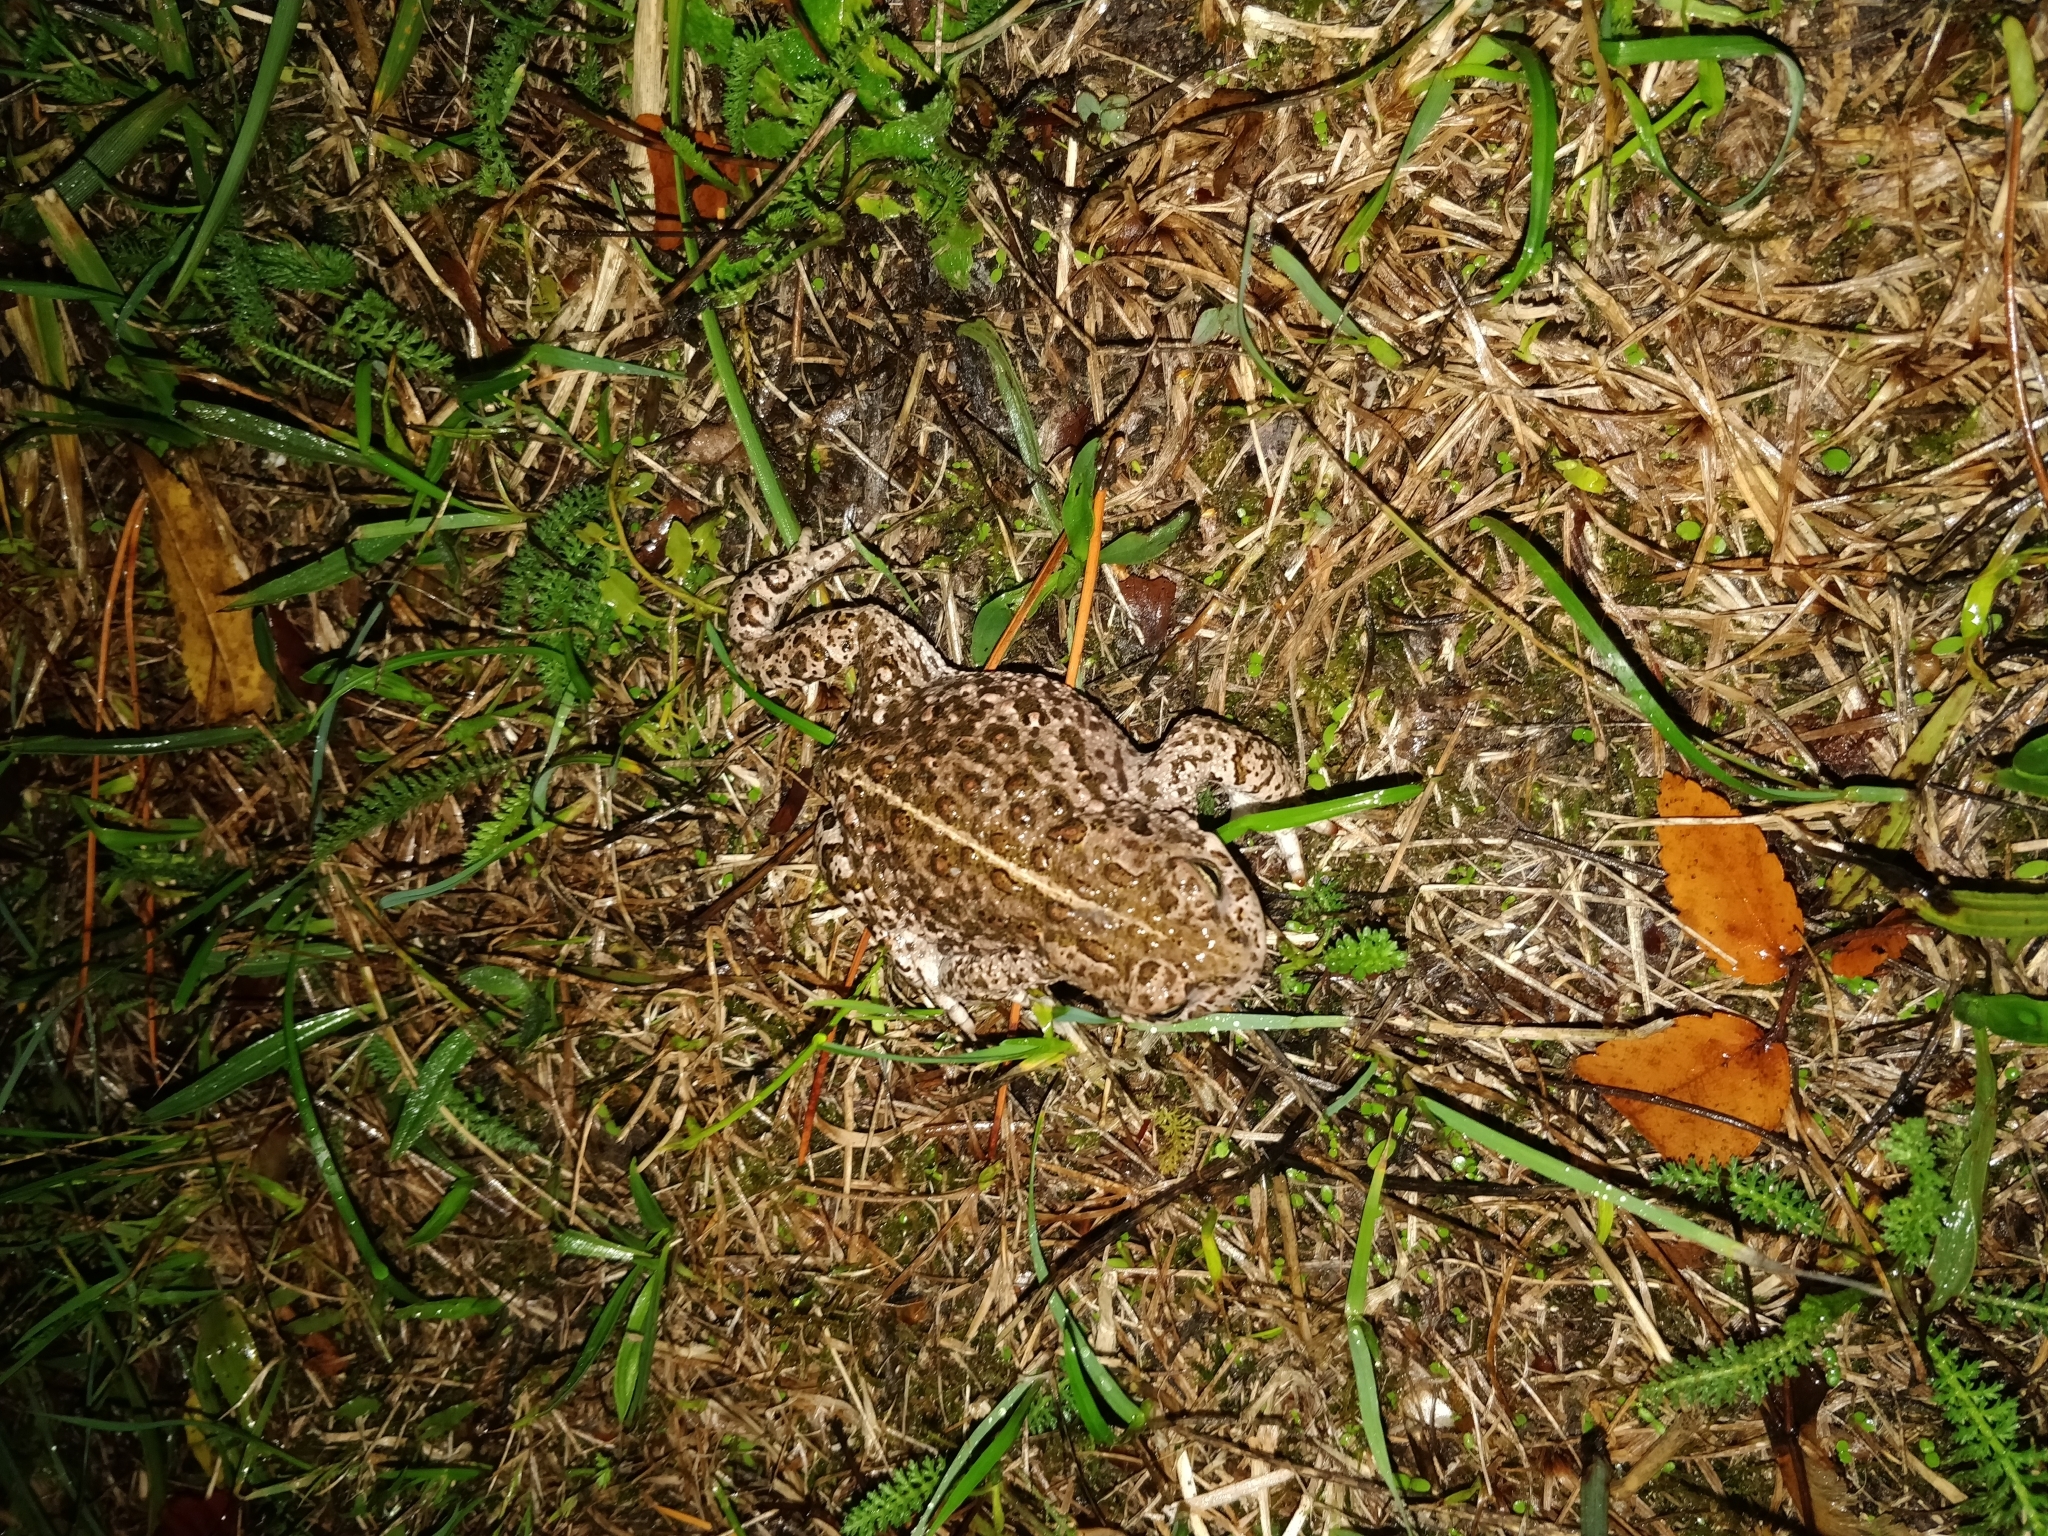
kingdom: Animalia
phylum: Chordata
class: Amphibia
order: Anura
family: Bufonidae
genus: Epidalea
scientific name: Epidalea calamita
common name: Natterjack toad
